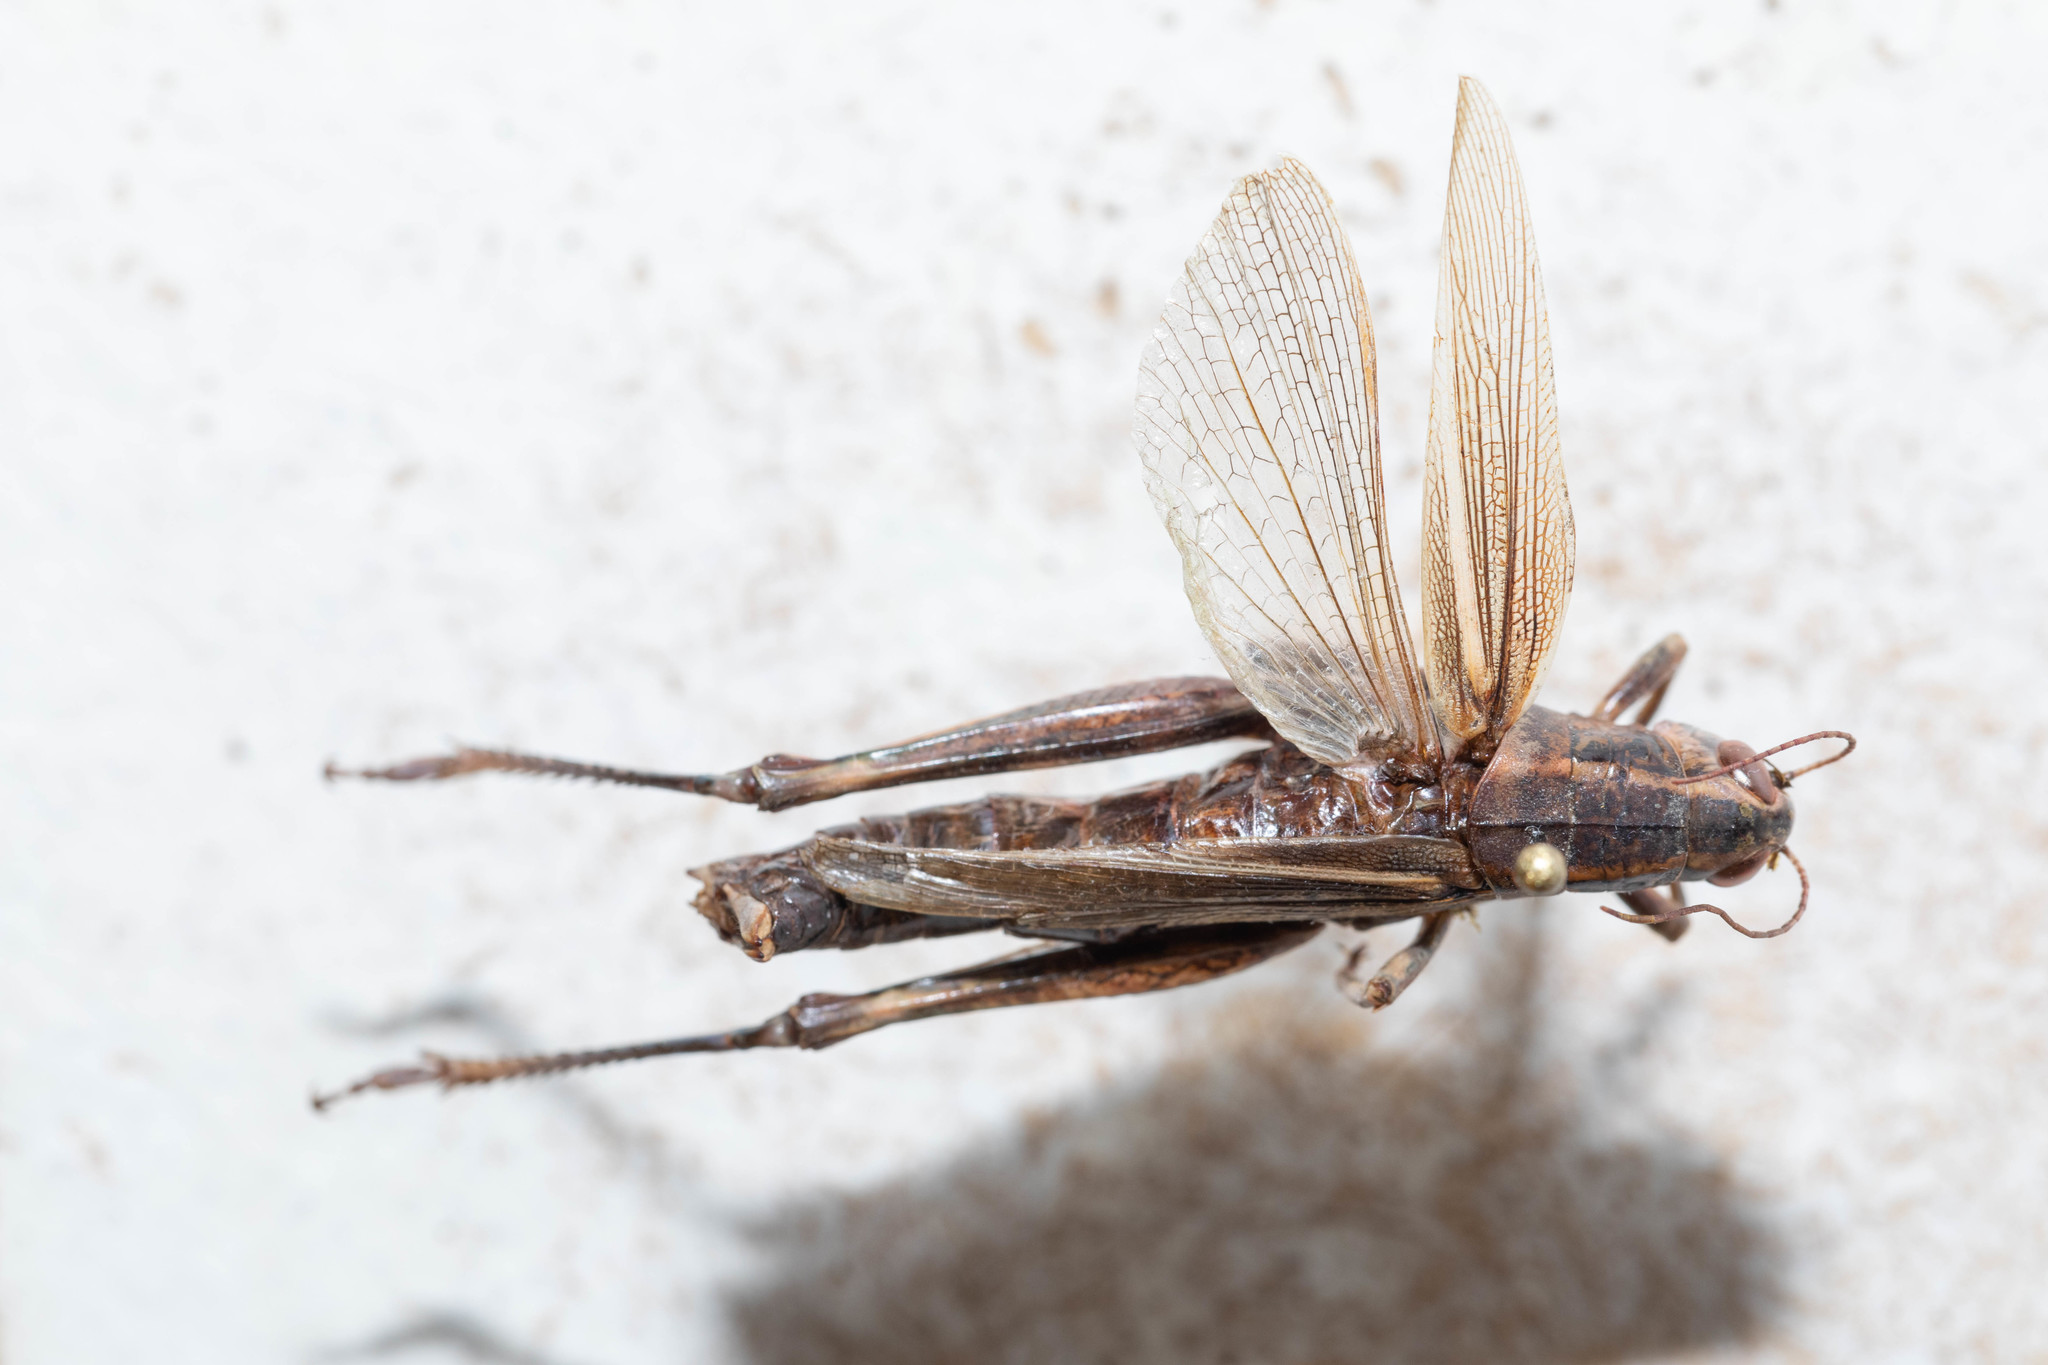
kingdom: Animalia
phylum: Arthropoda
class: Insecta
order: Orthoptera
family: Acrididae
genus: Melanoplus
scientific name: Melanoplus bivittatus
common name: Two-striped grasshopper
